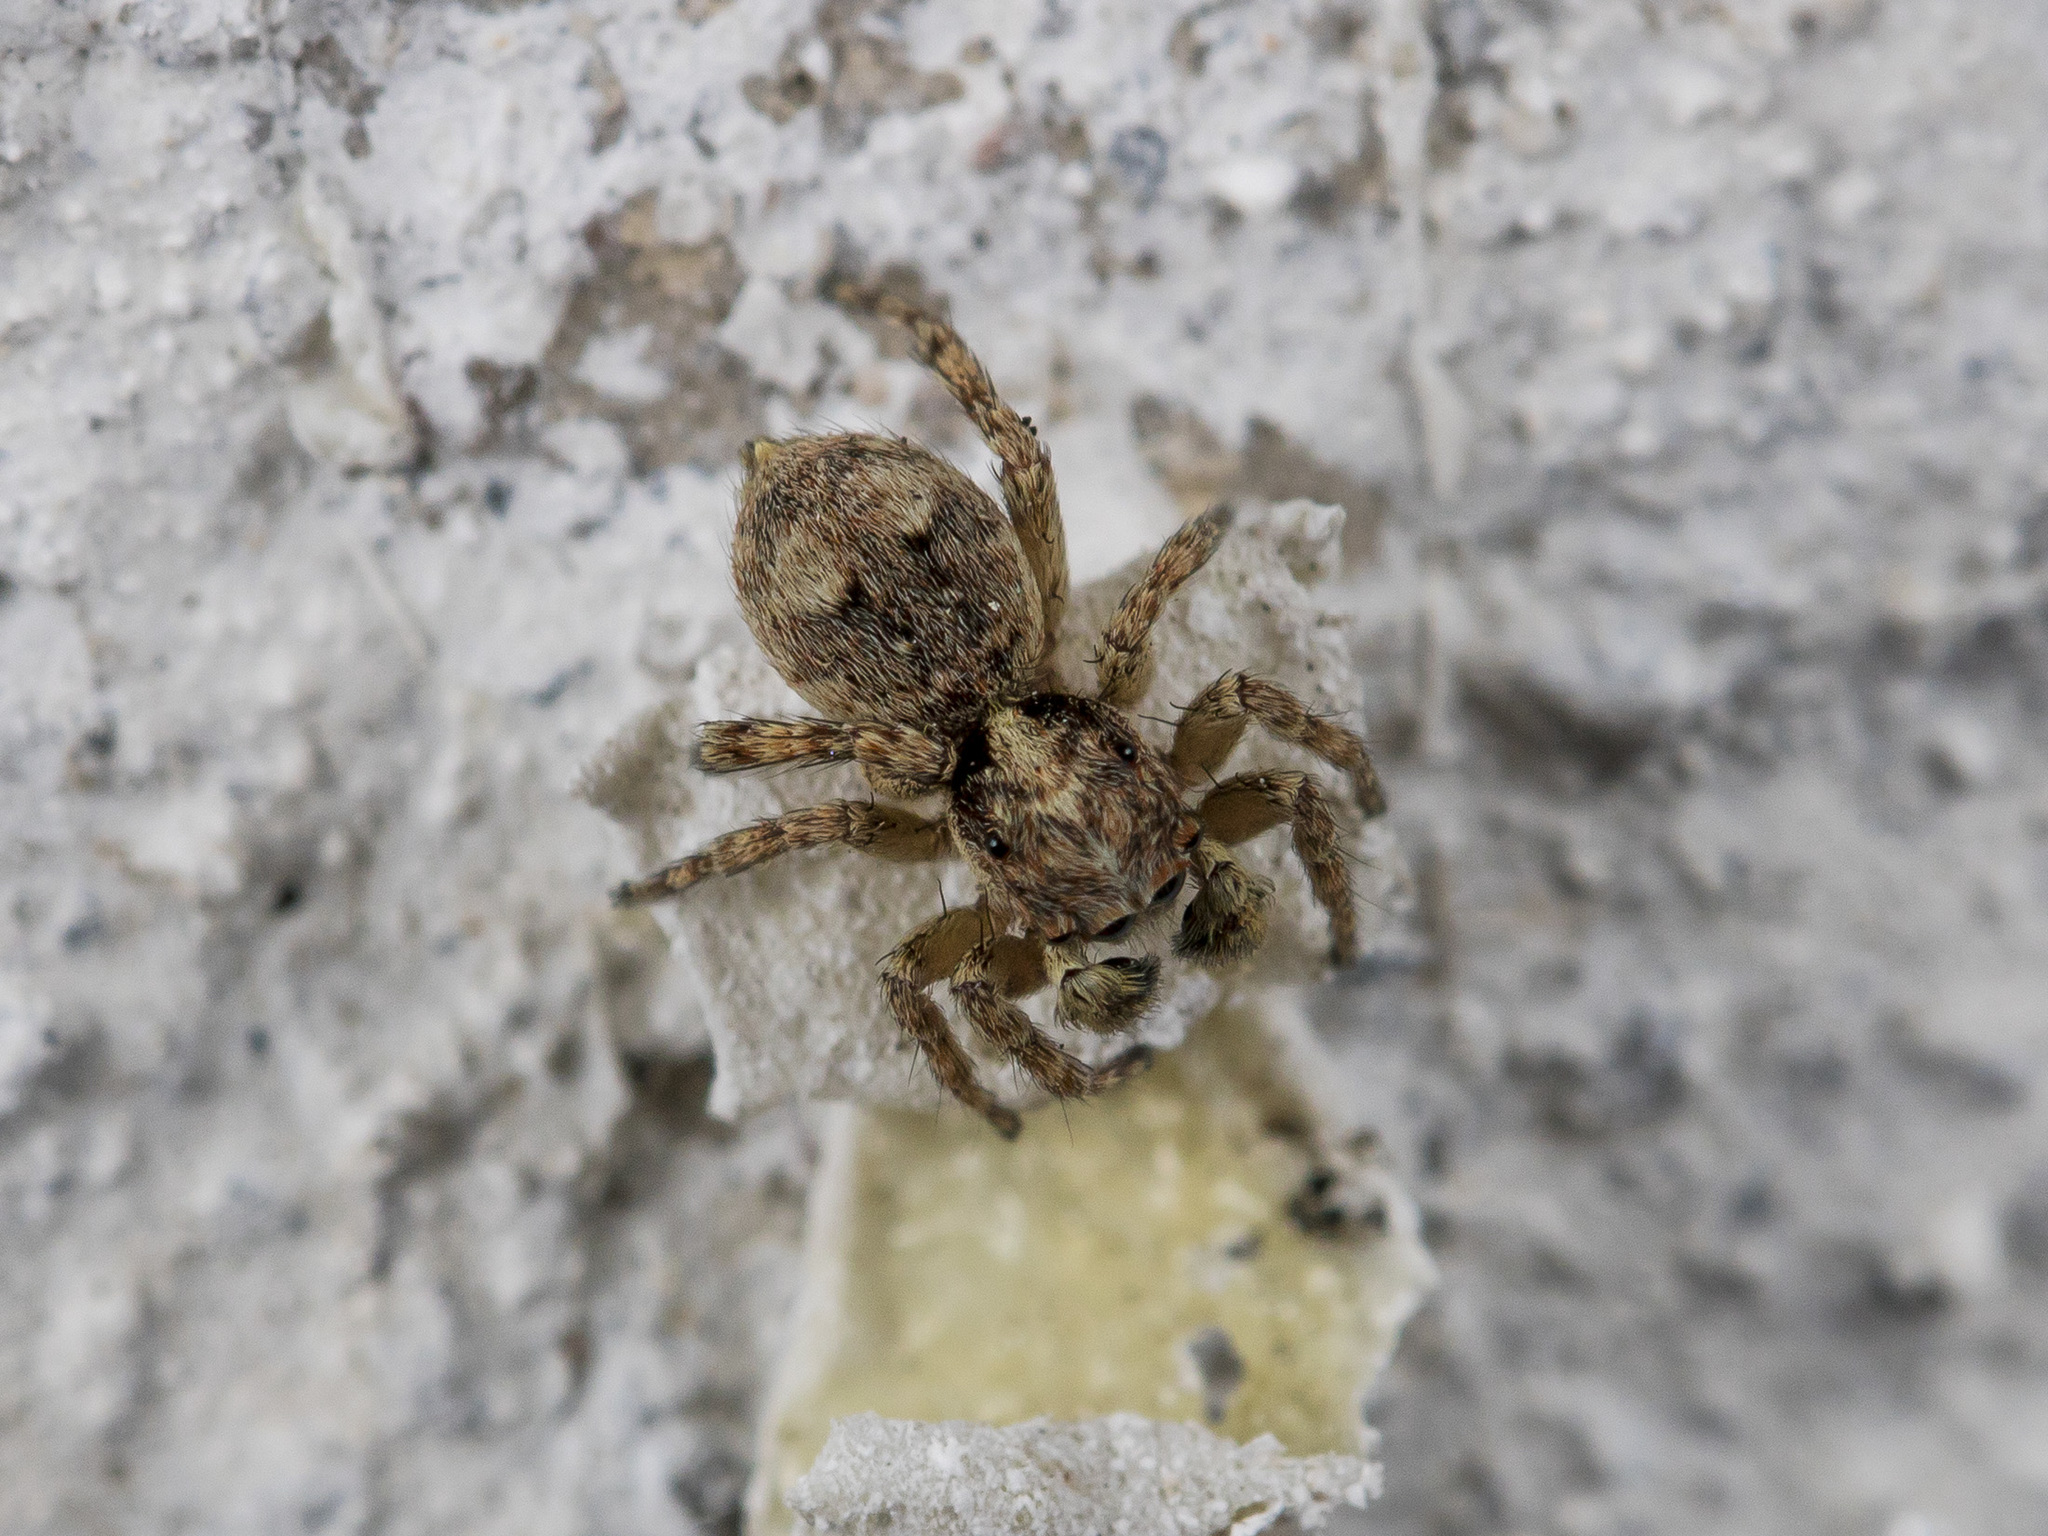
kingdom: Animalia
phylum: Arthropoda
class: Arachnida
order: Araneae
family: Salticidae
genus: Attulus
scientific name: Attulus fasciger
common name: Asiatic wall jumping spider
